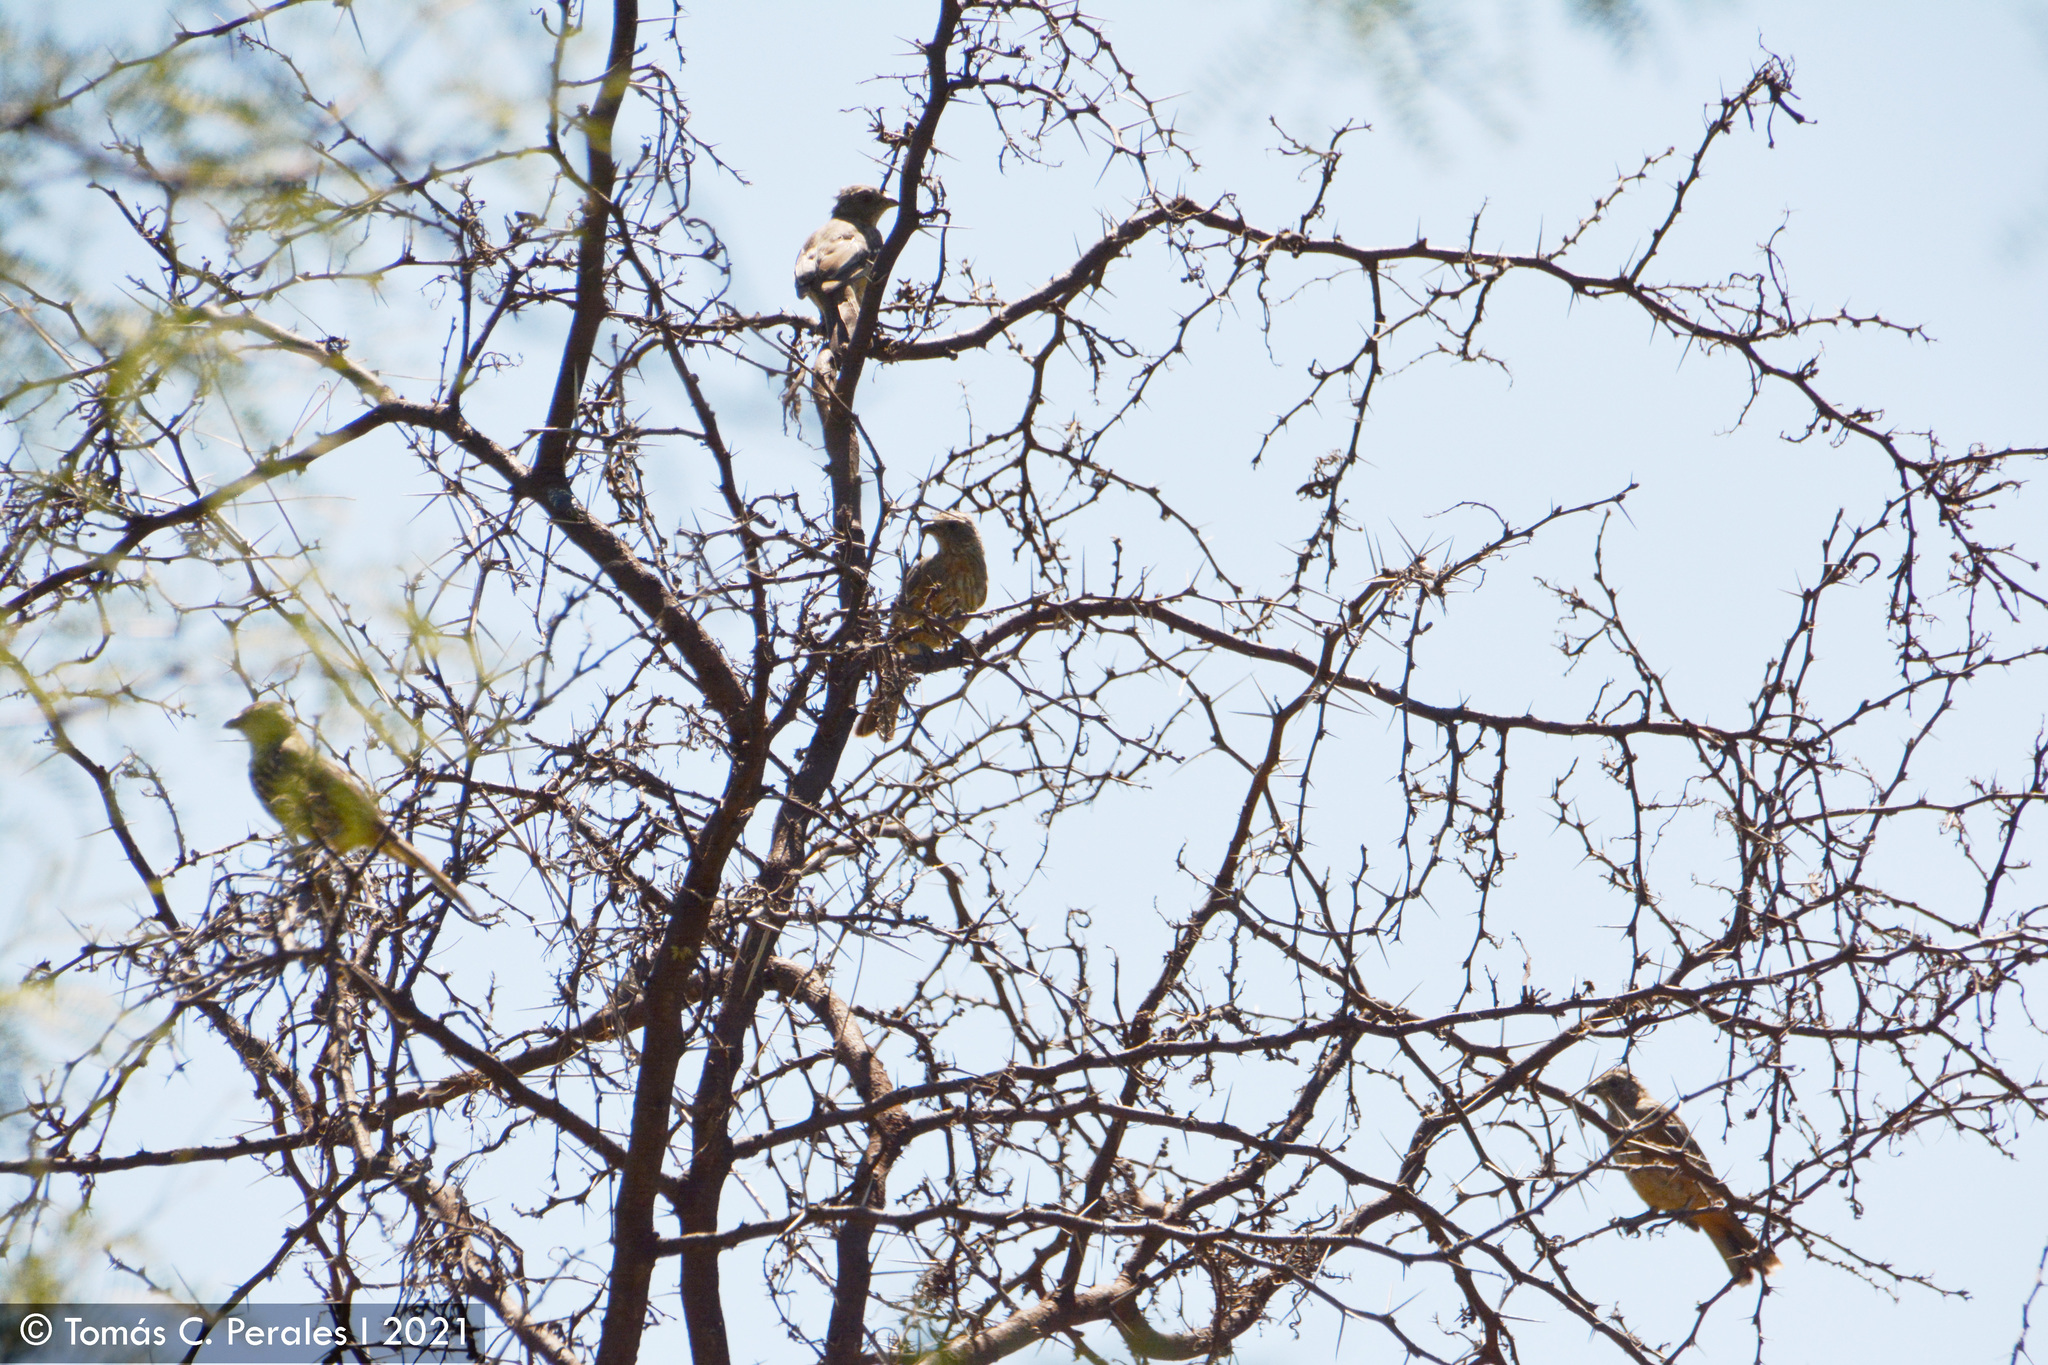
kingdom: Animalia
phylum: Chordata
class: Aves
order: Passeriformes
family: Cotingidae
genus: Phytotoma
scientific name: Phytotoma rutila
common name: White-tipped plantcutter
